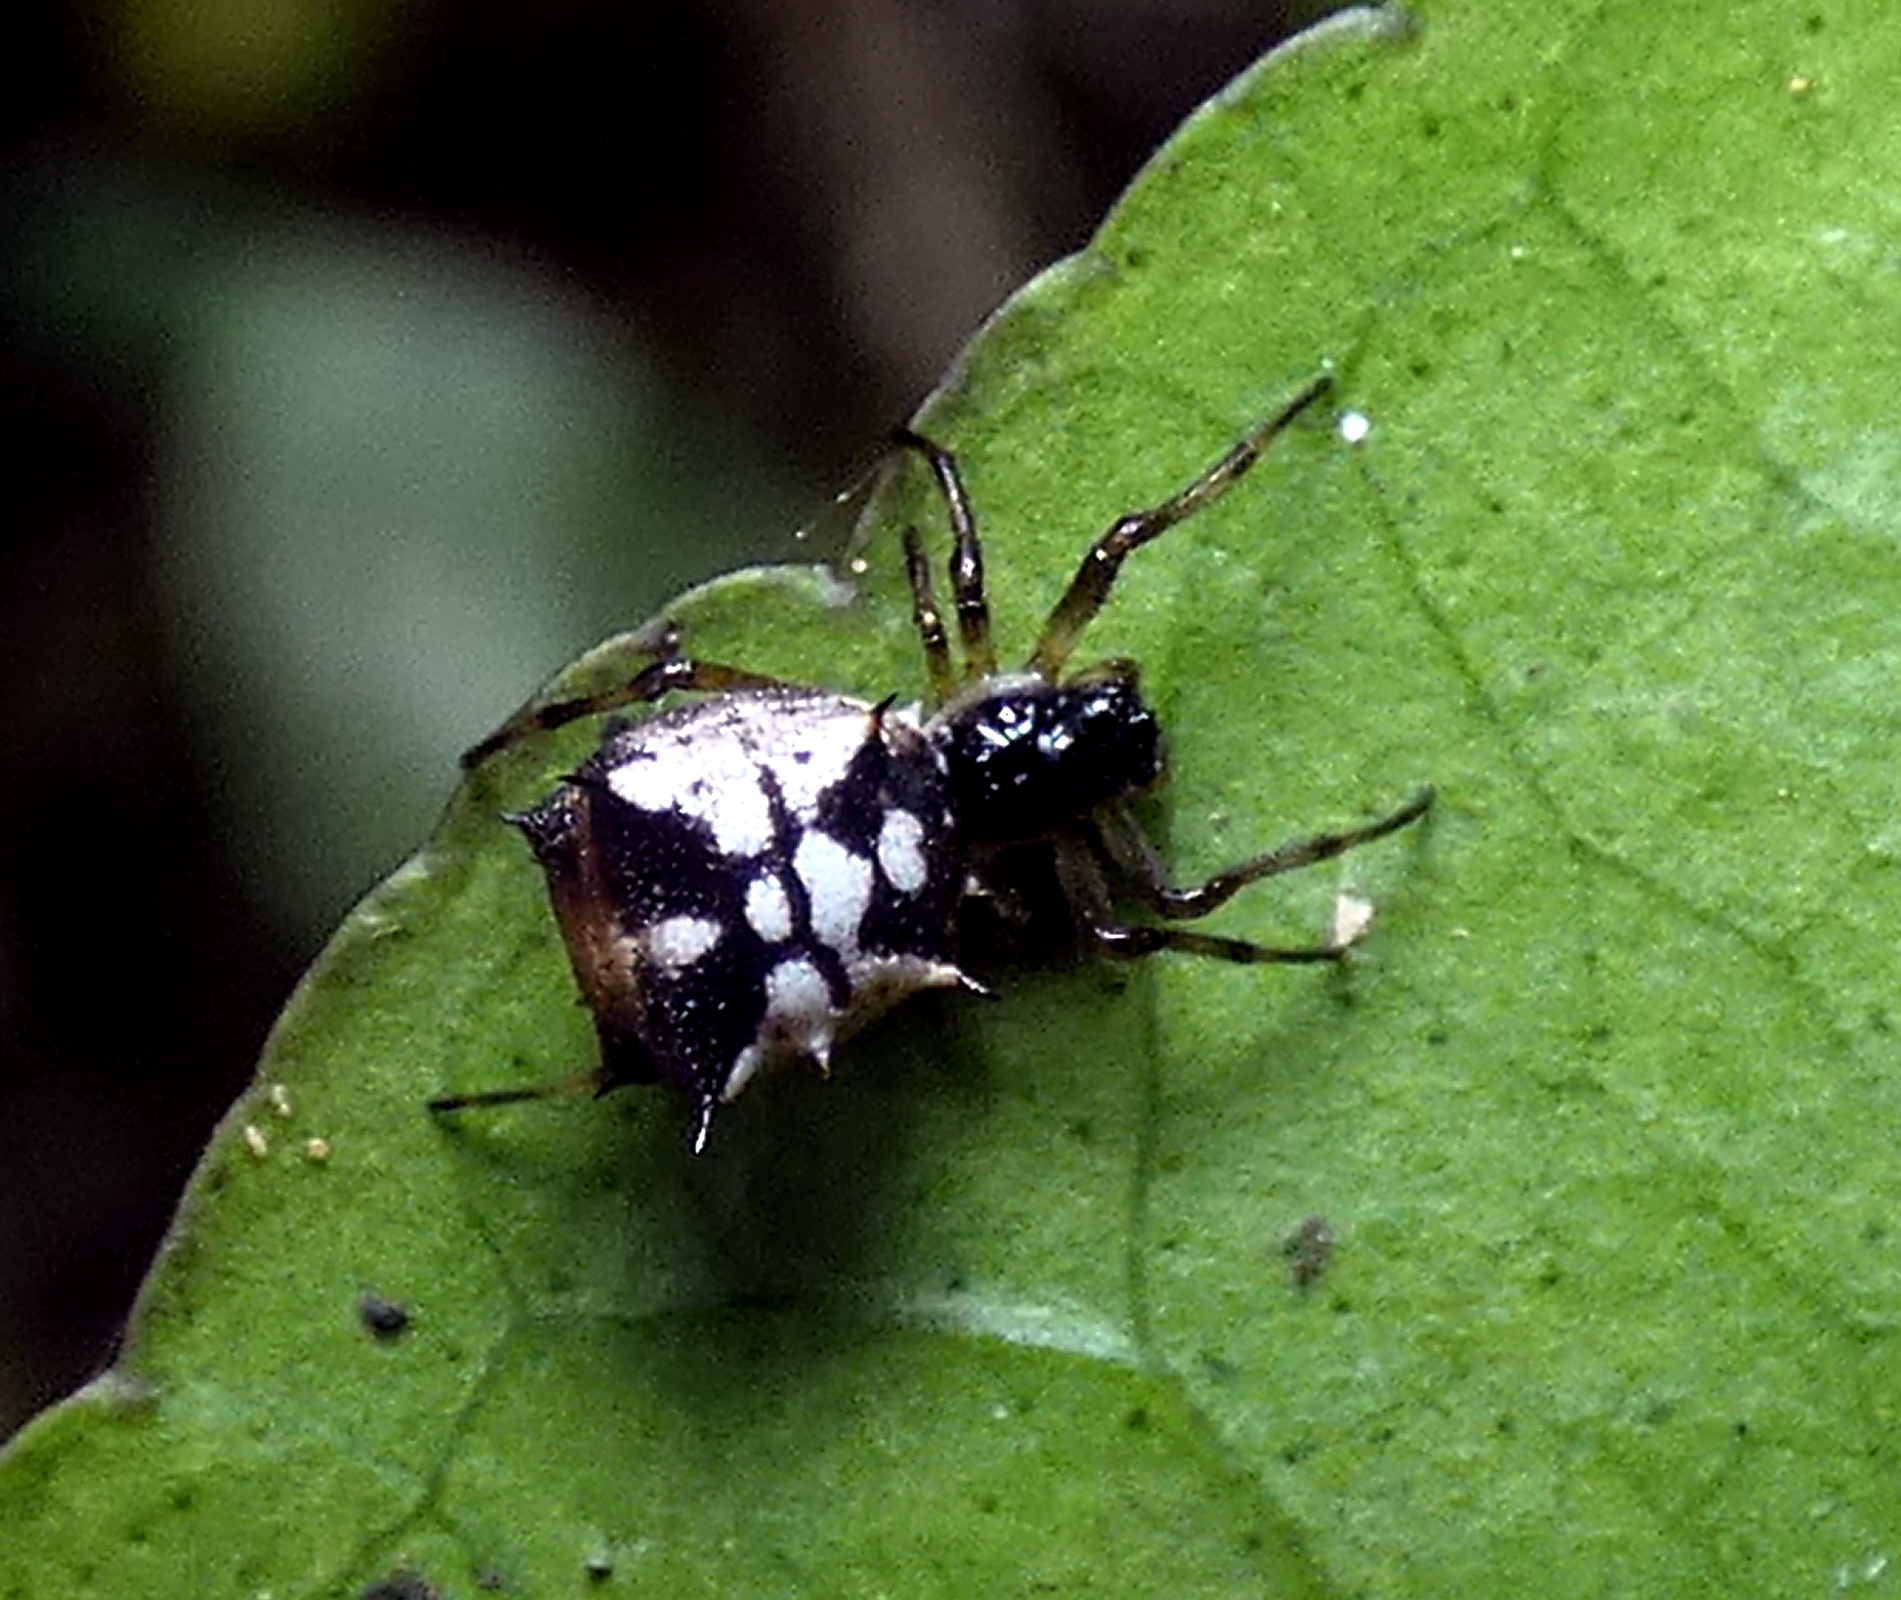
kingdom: Animalia
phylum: Arthropoda
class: Arachnida
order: Araneae
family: Araneidae
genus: Micrathena
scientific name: Micrathena picta
